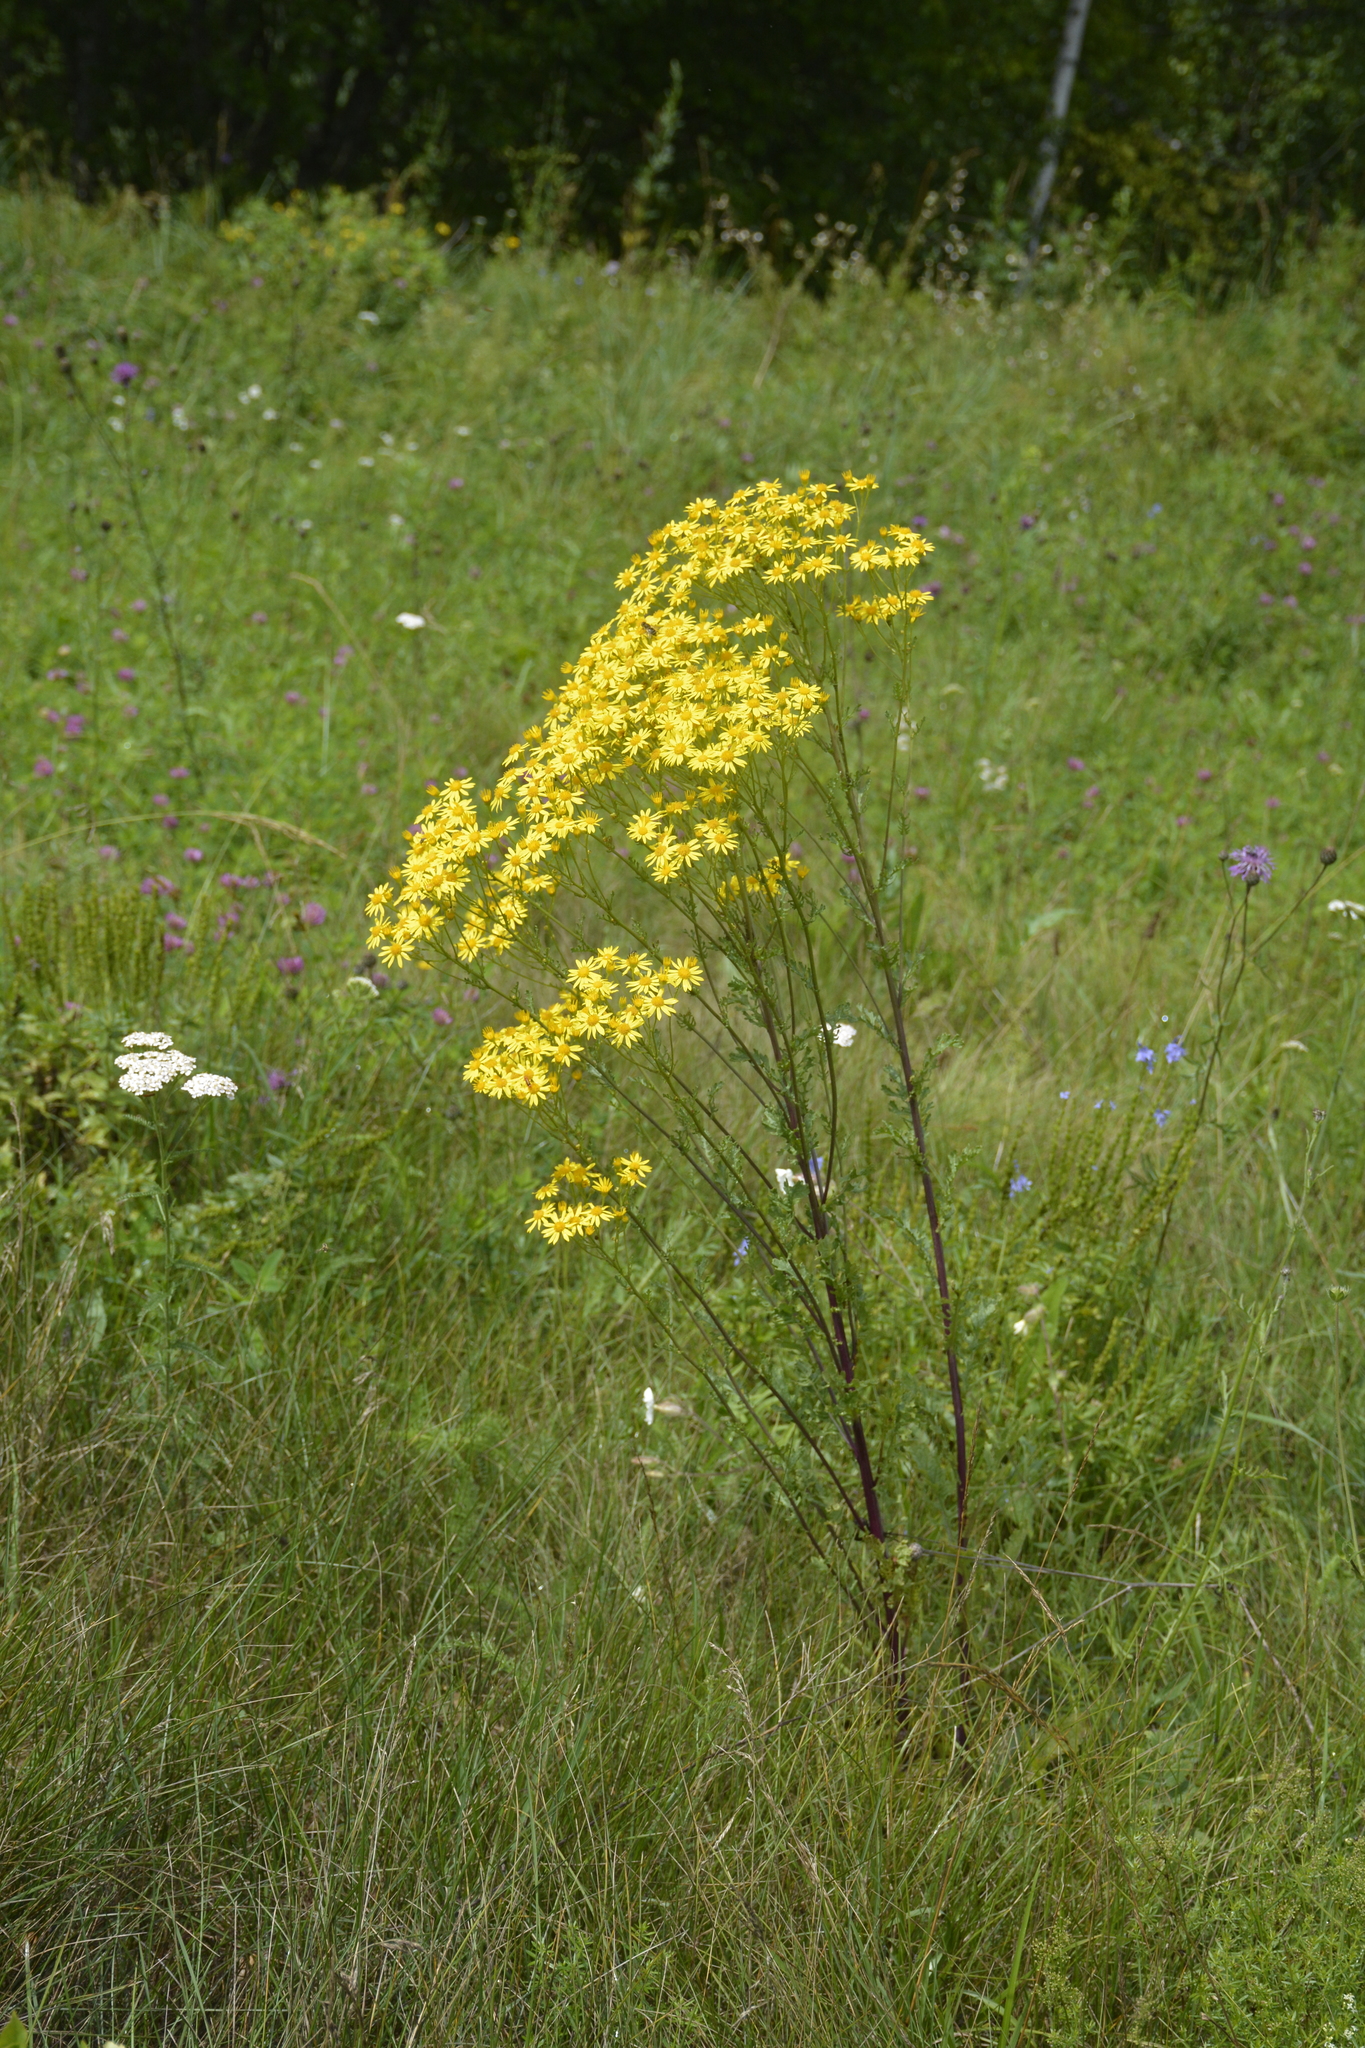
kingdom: Plantae
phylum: Tracheophyta
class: Magnoliopsida
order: Asterales
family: Asteraceae
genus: Jacobaea
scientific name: Jacobaea vulgaris
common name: Stinking willie
